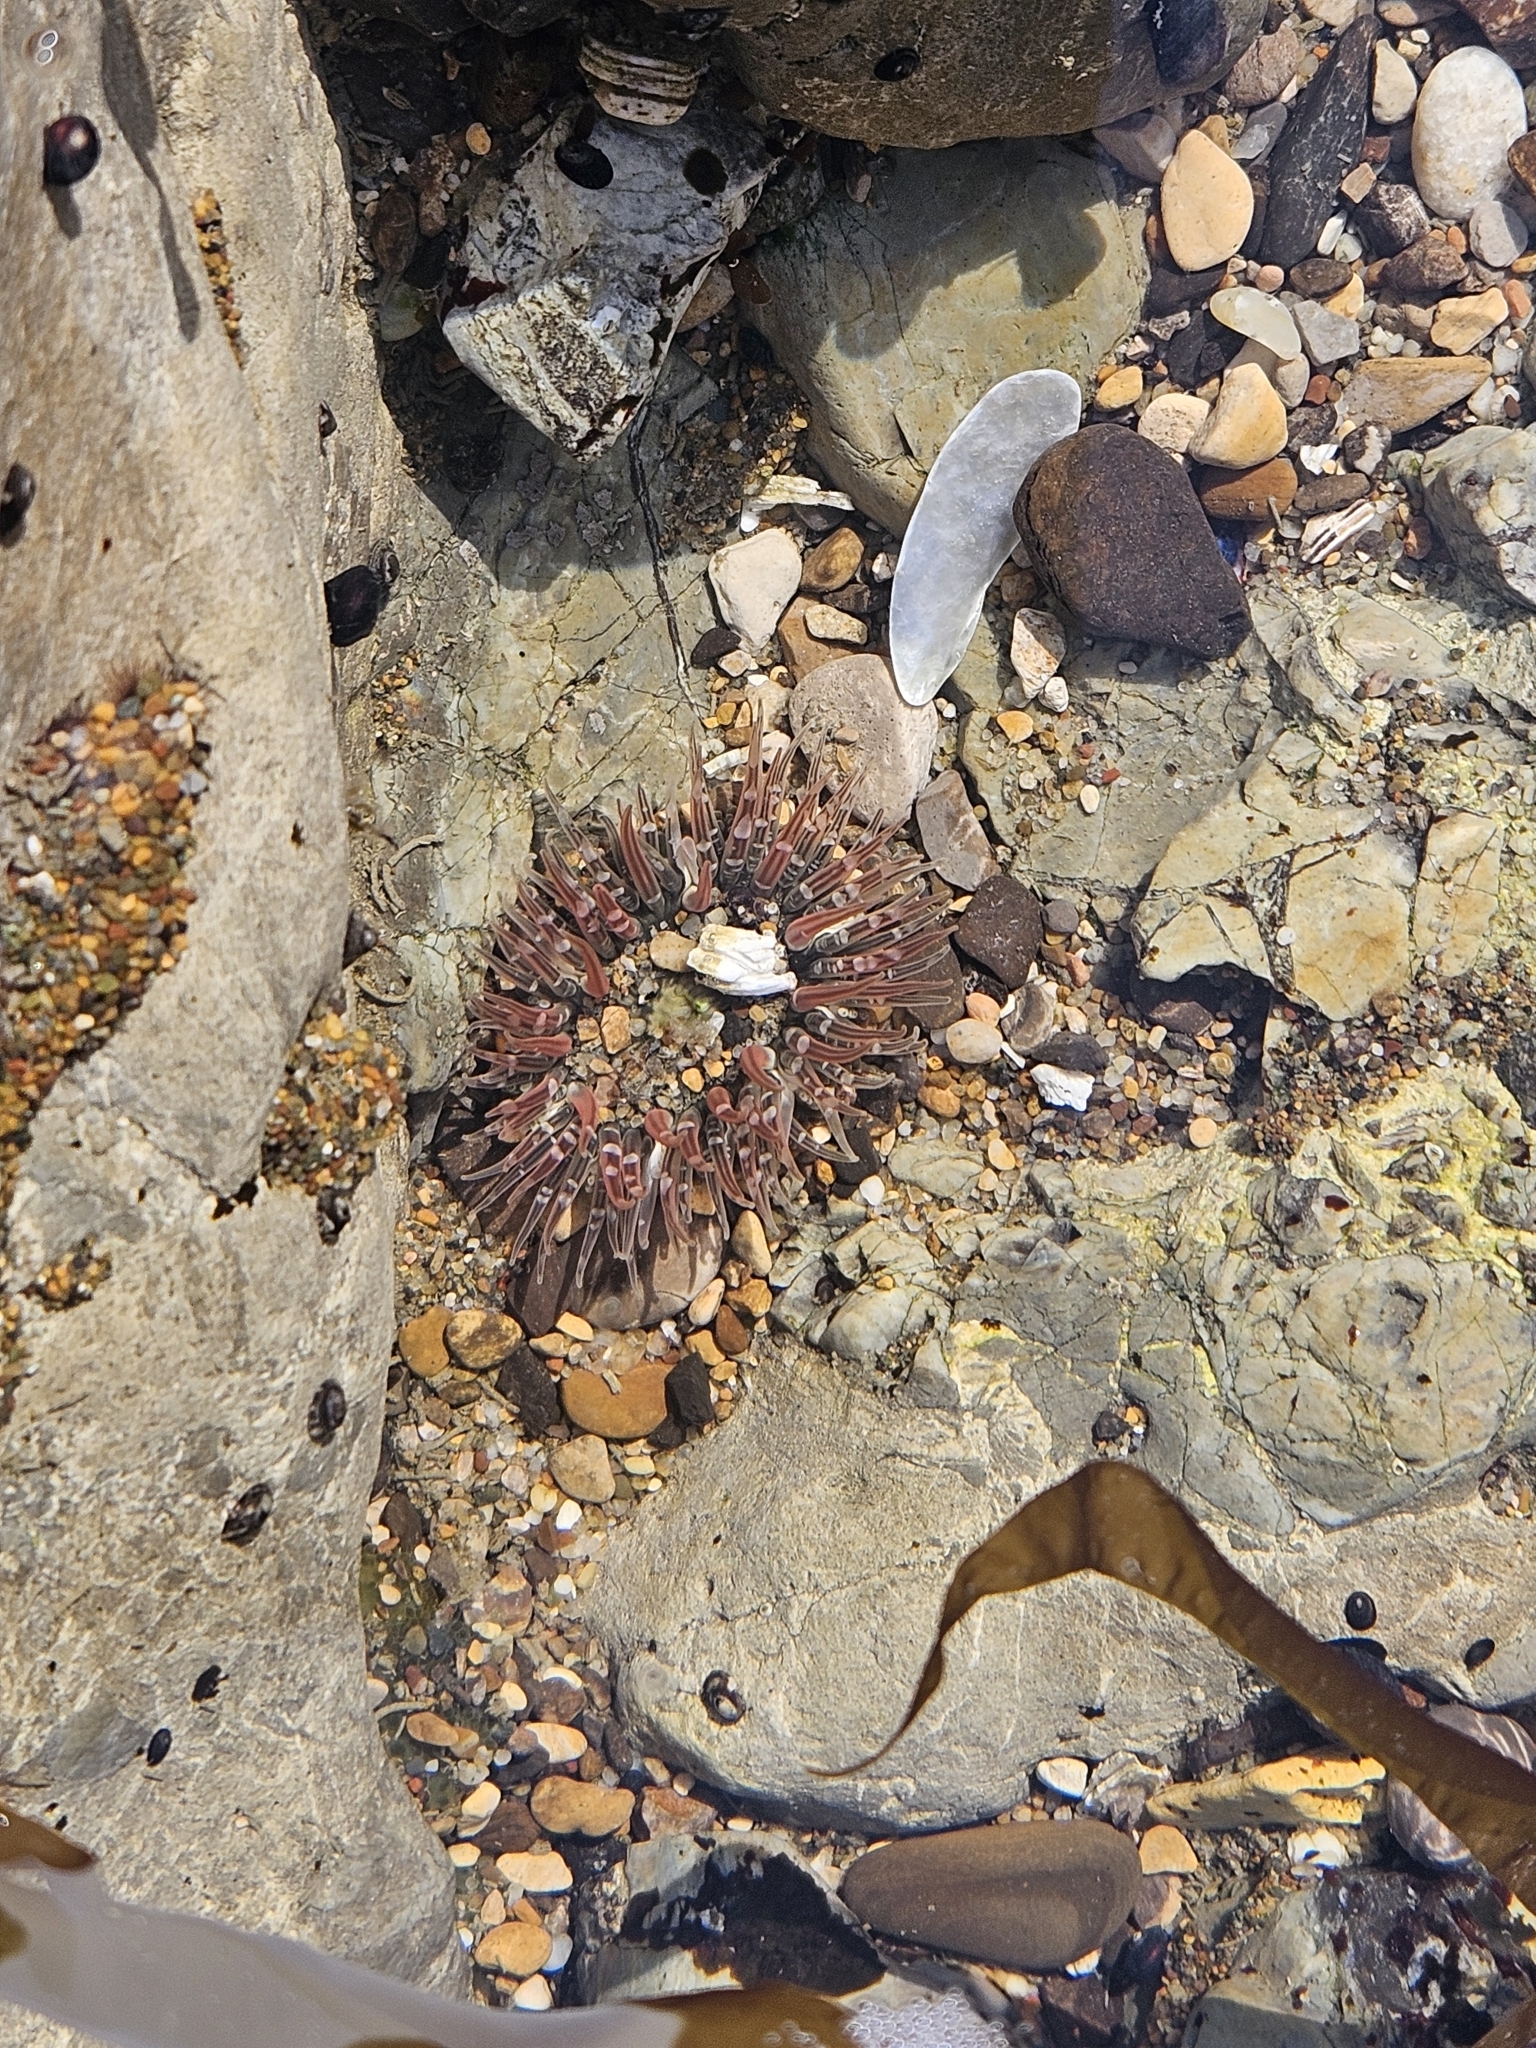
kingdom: Animalia
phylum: Cnidaria
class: Anthozoa
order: Actiniaria
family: Actiniidae
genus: Anthopleura
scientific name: Anthopleura artemisia
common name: Buried sea anemone
